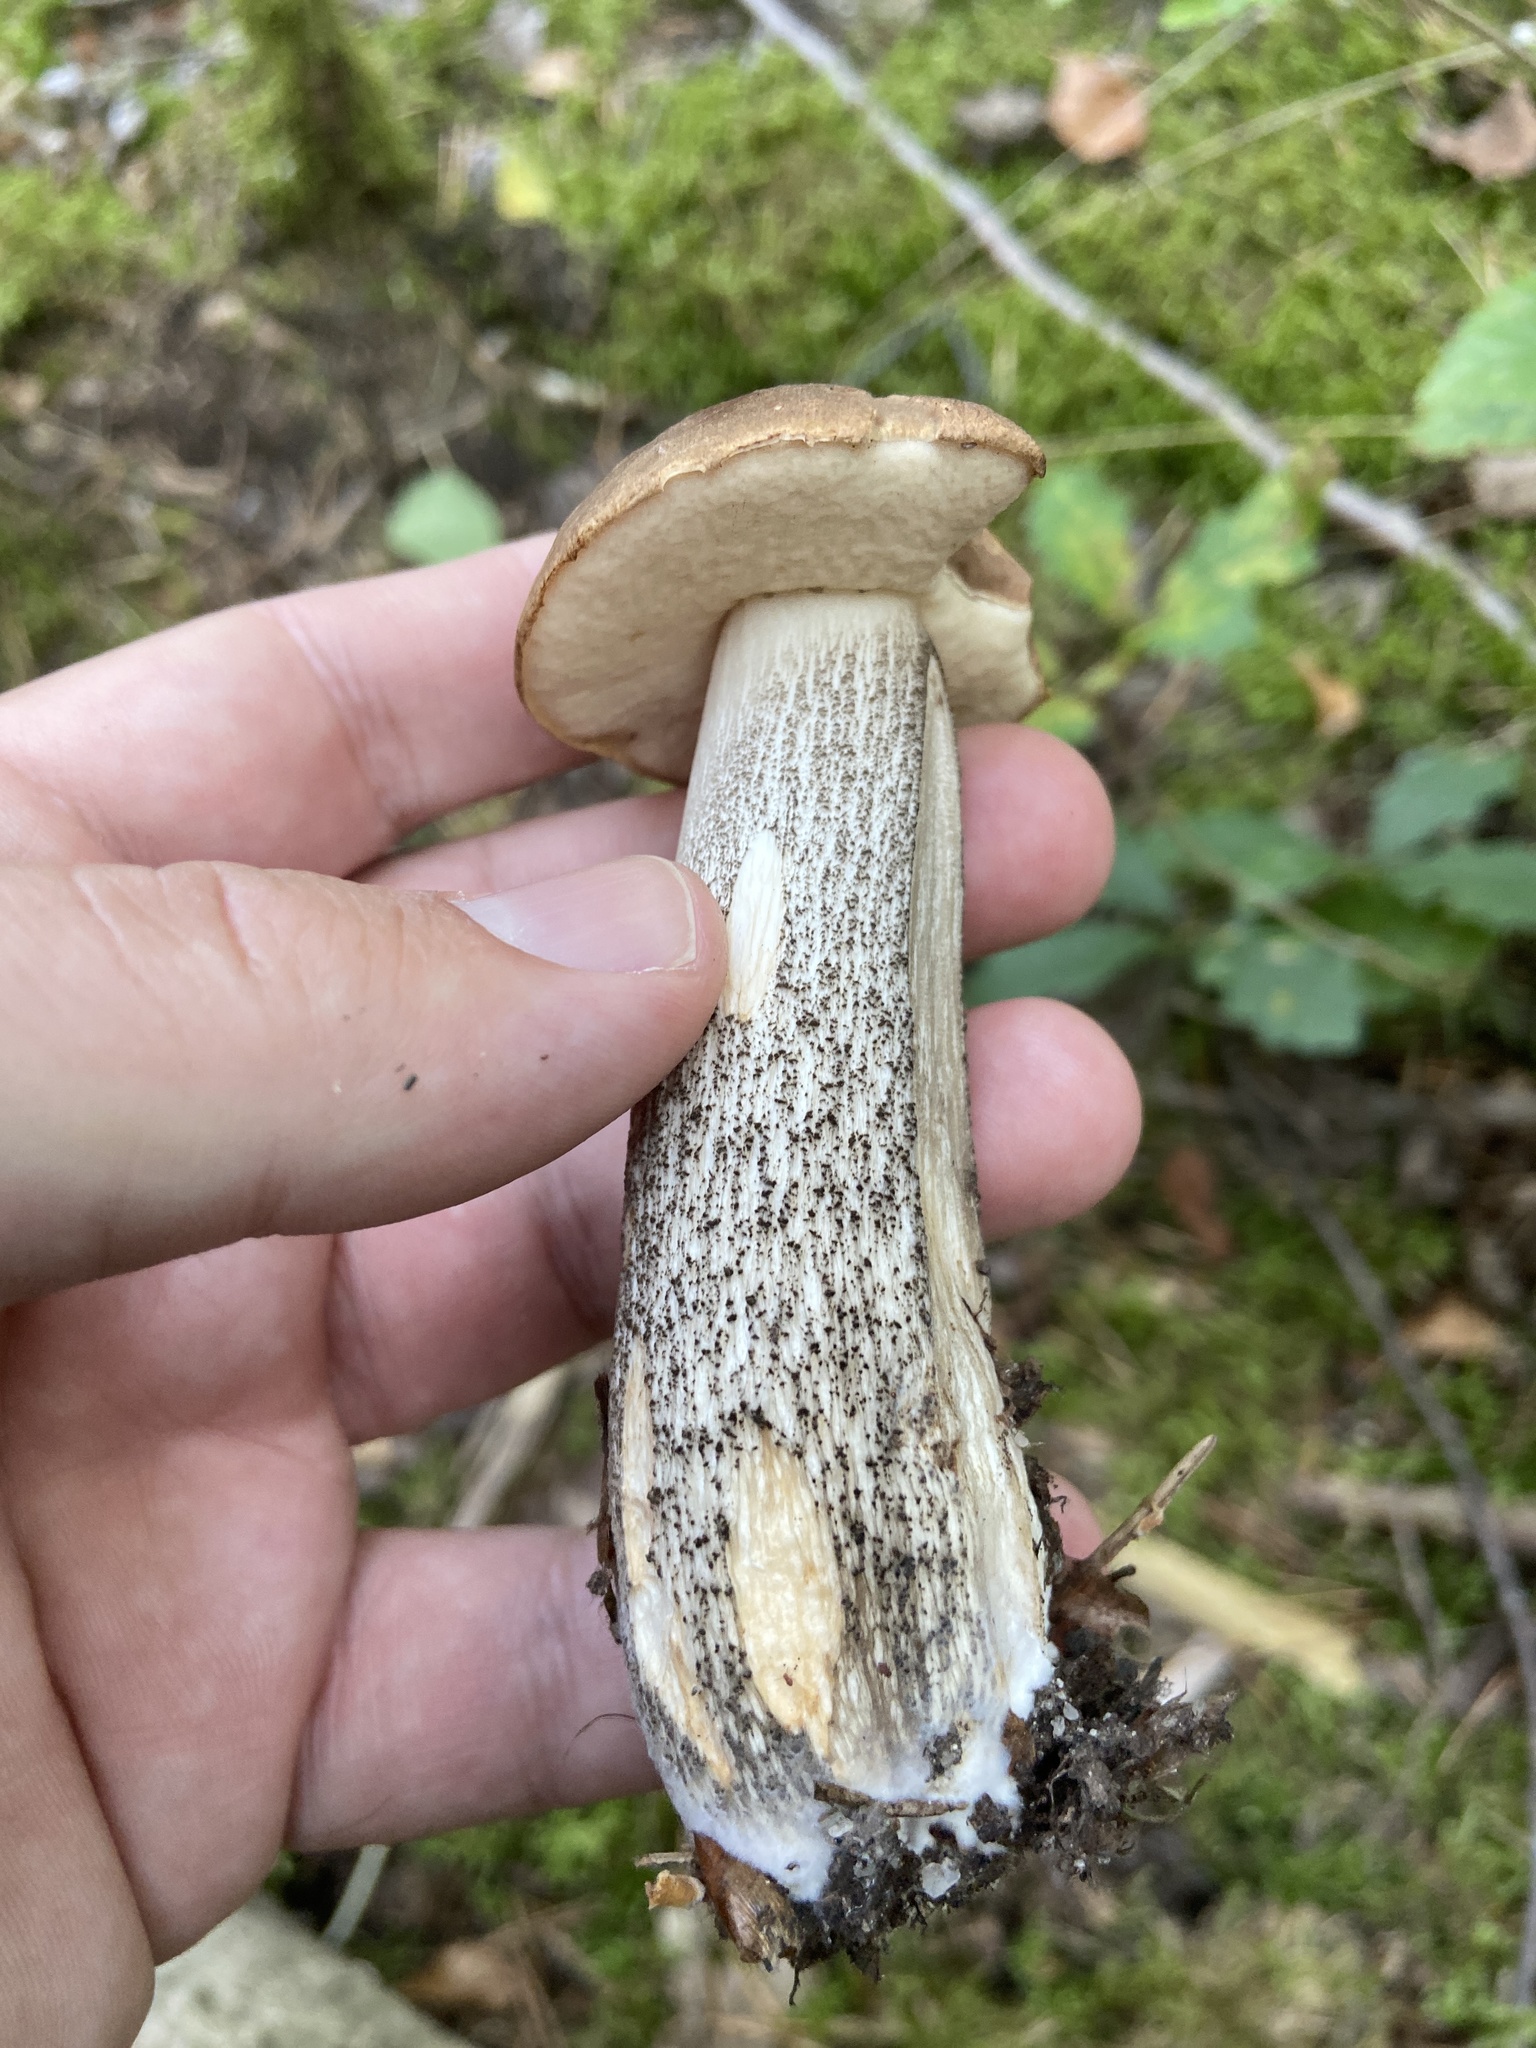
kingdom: Fungi
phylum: Basidiomycota
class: Agaricomycetes
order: Boletales
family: Boletaceae
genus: Leccinum
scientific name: Leccinum scabrum
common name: Blushing bolete
